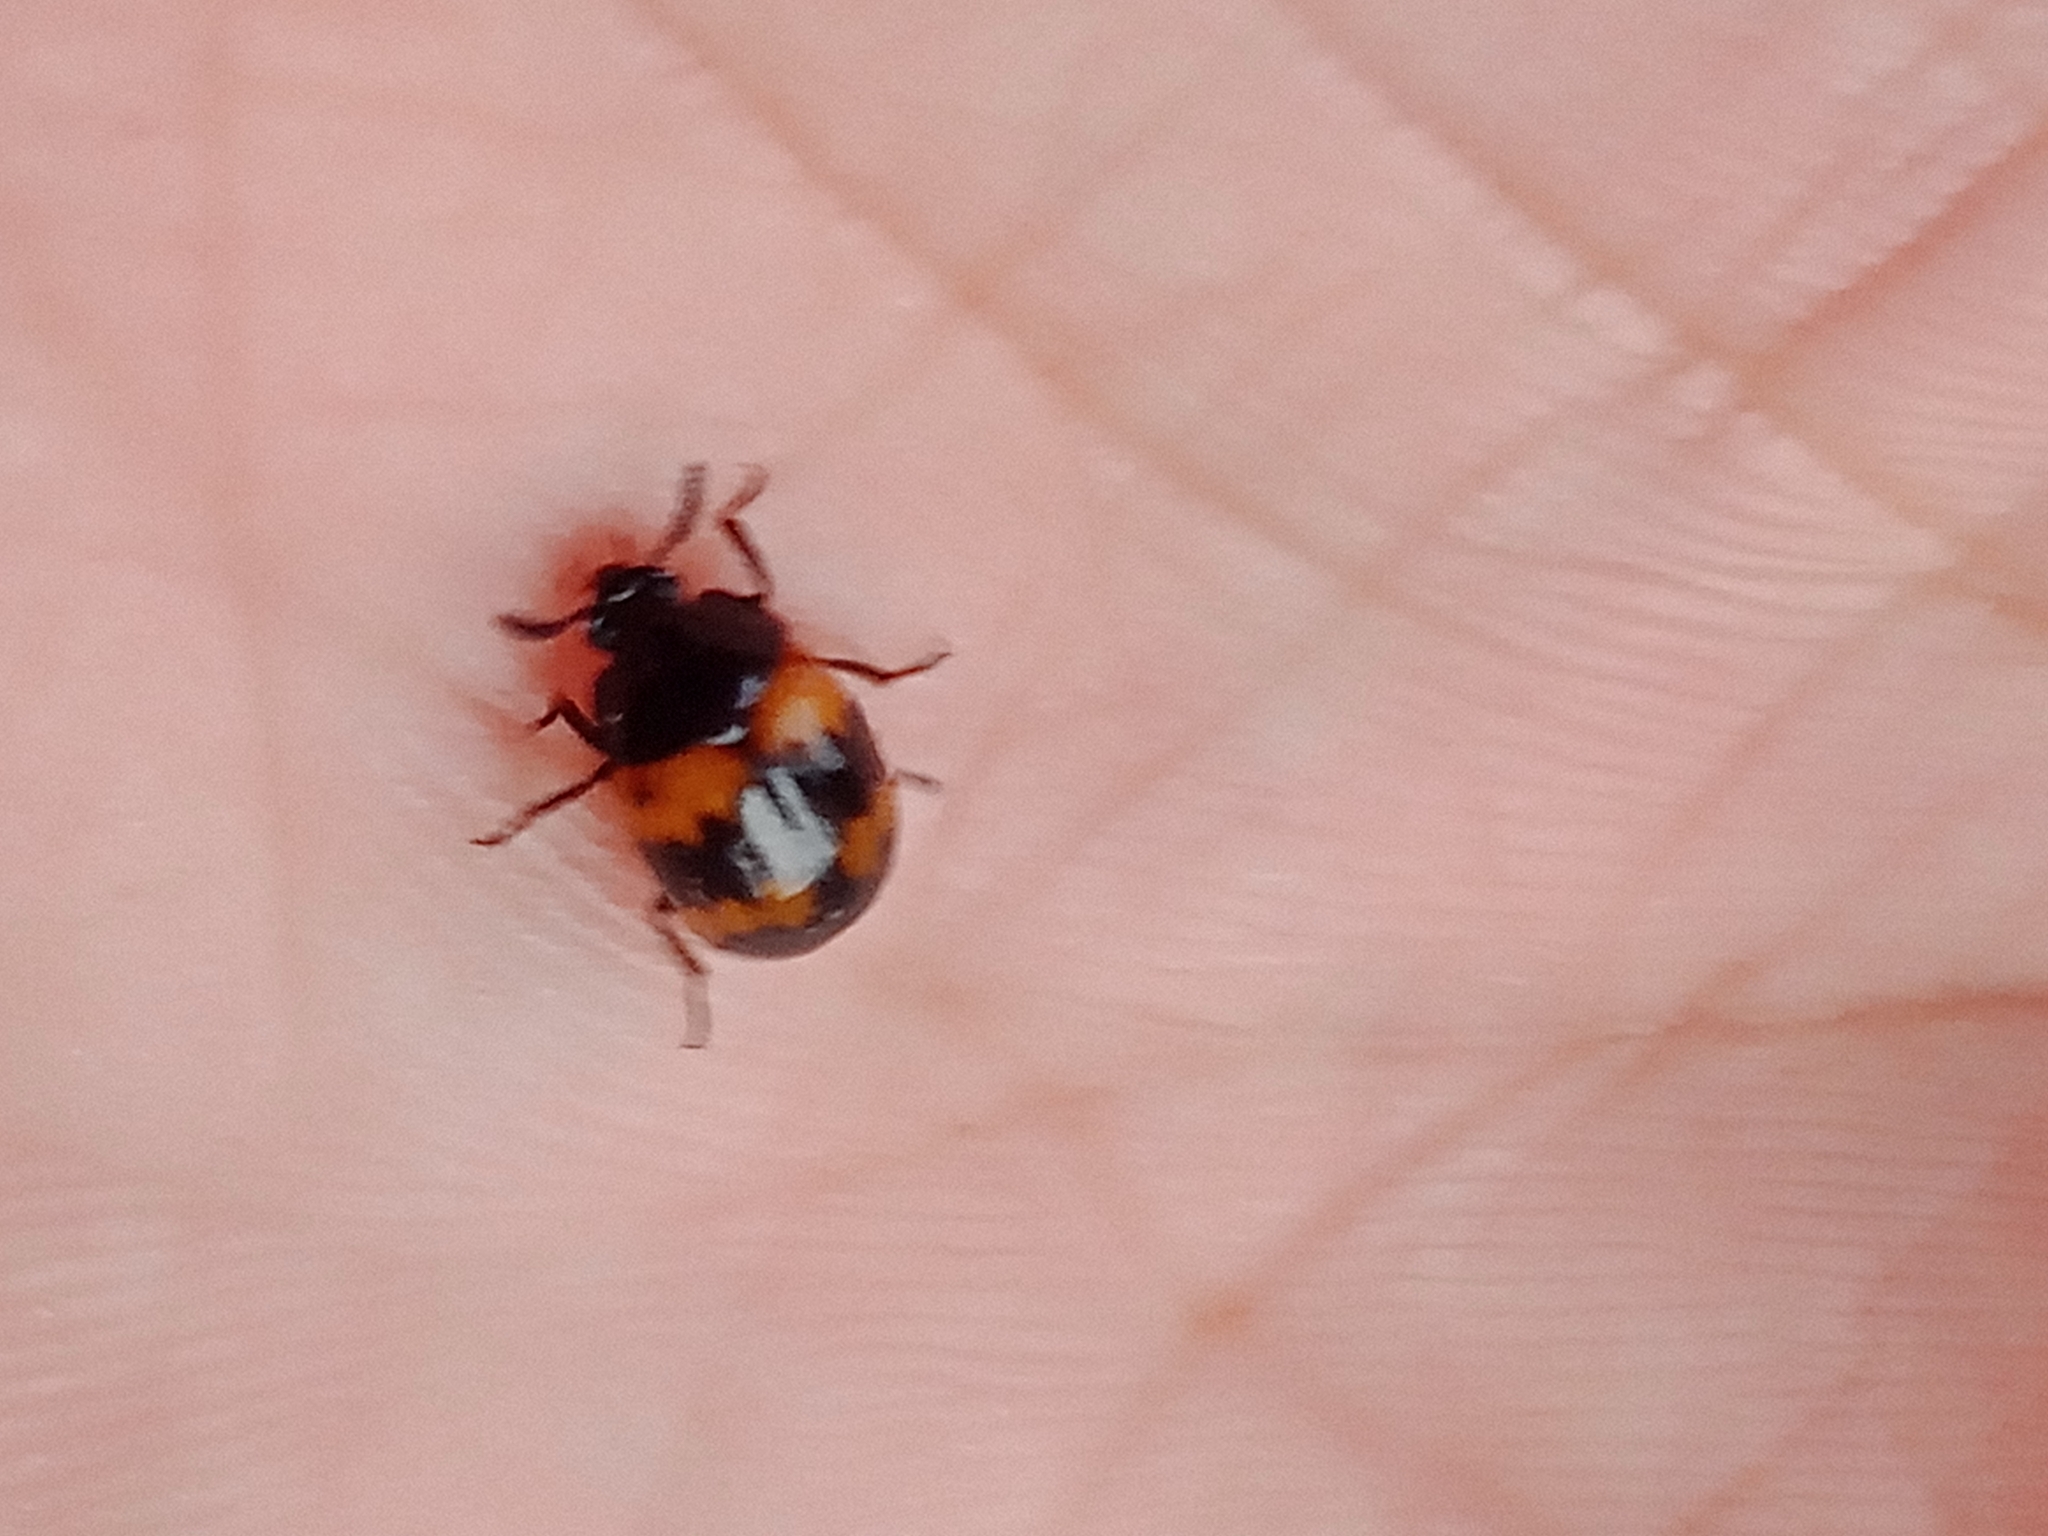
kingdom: Animalia
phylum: Arthropoda
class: Insecta
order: Coleoptera
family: Tenebrionidae
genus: Diaperis
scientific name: Diaperis boleti
